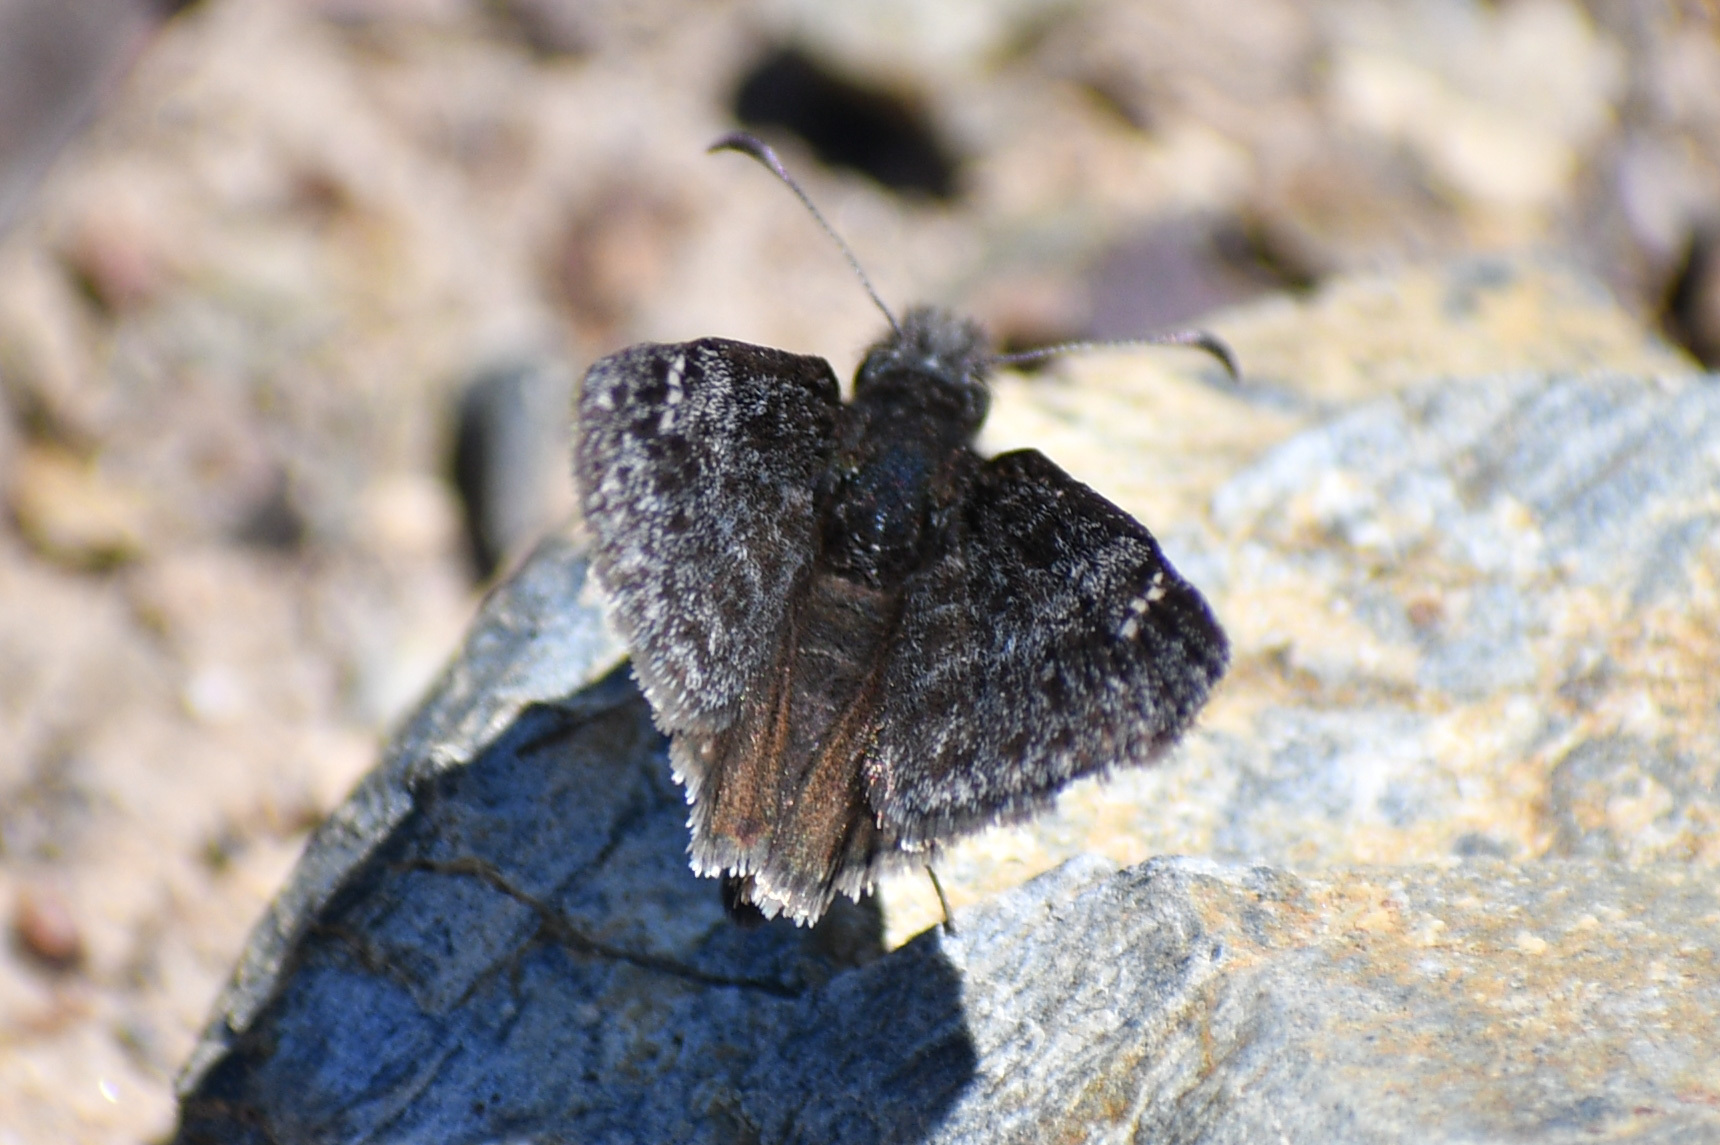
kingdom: Animalia
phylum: Arthropoda
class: Insecta
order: Lepidoptera
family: Hesperiidae
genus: Erynnis
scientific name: Erynnis persius
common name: Persius duskywing
